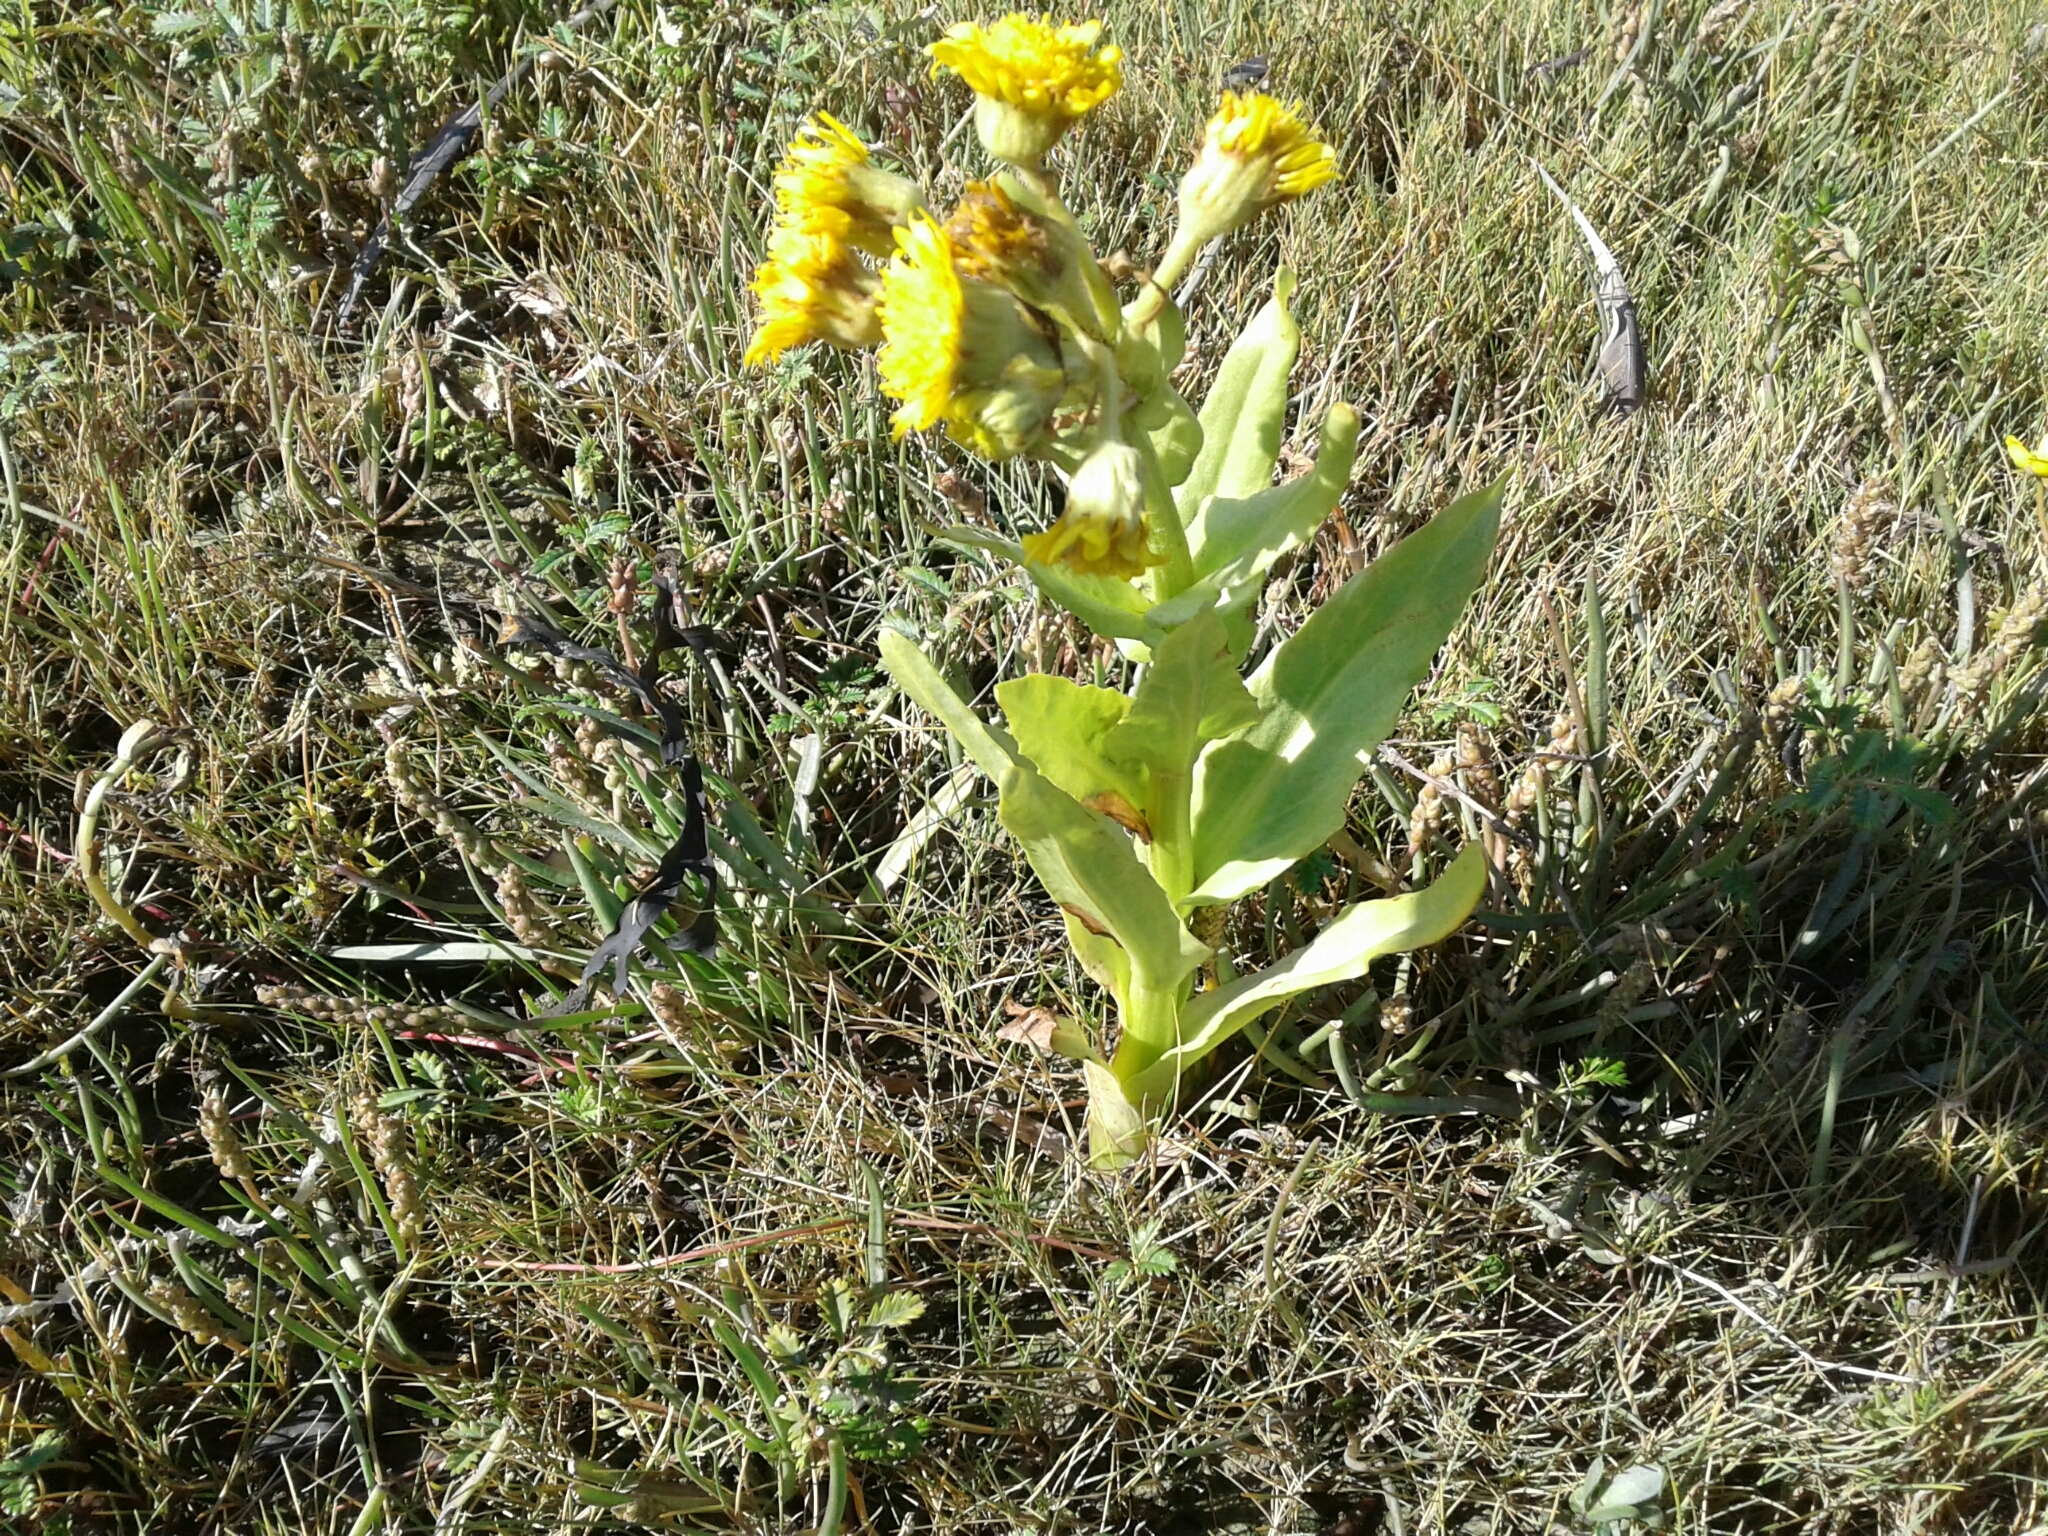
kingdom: Plantae
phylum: Tracheophyta
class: Magnoliopsida
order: Asterales
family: Asteraceae
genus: Tephroseris
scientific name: Tephroseris palustris
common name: Marsh fleawort
